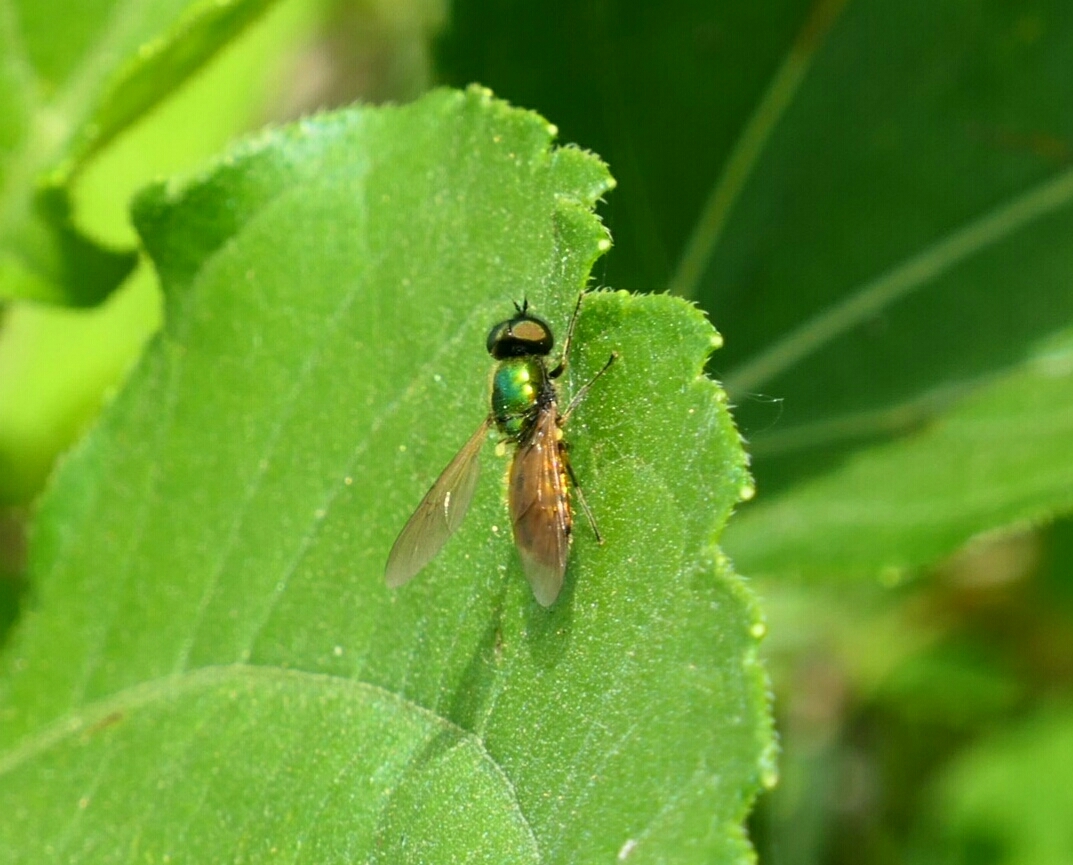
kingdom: Animalia
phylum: Arthropoda
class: Insecta
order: Diptera
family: Stratiomyidae
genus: Chloromyia
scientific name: Chloromyia formosa
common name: Soldier fly
